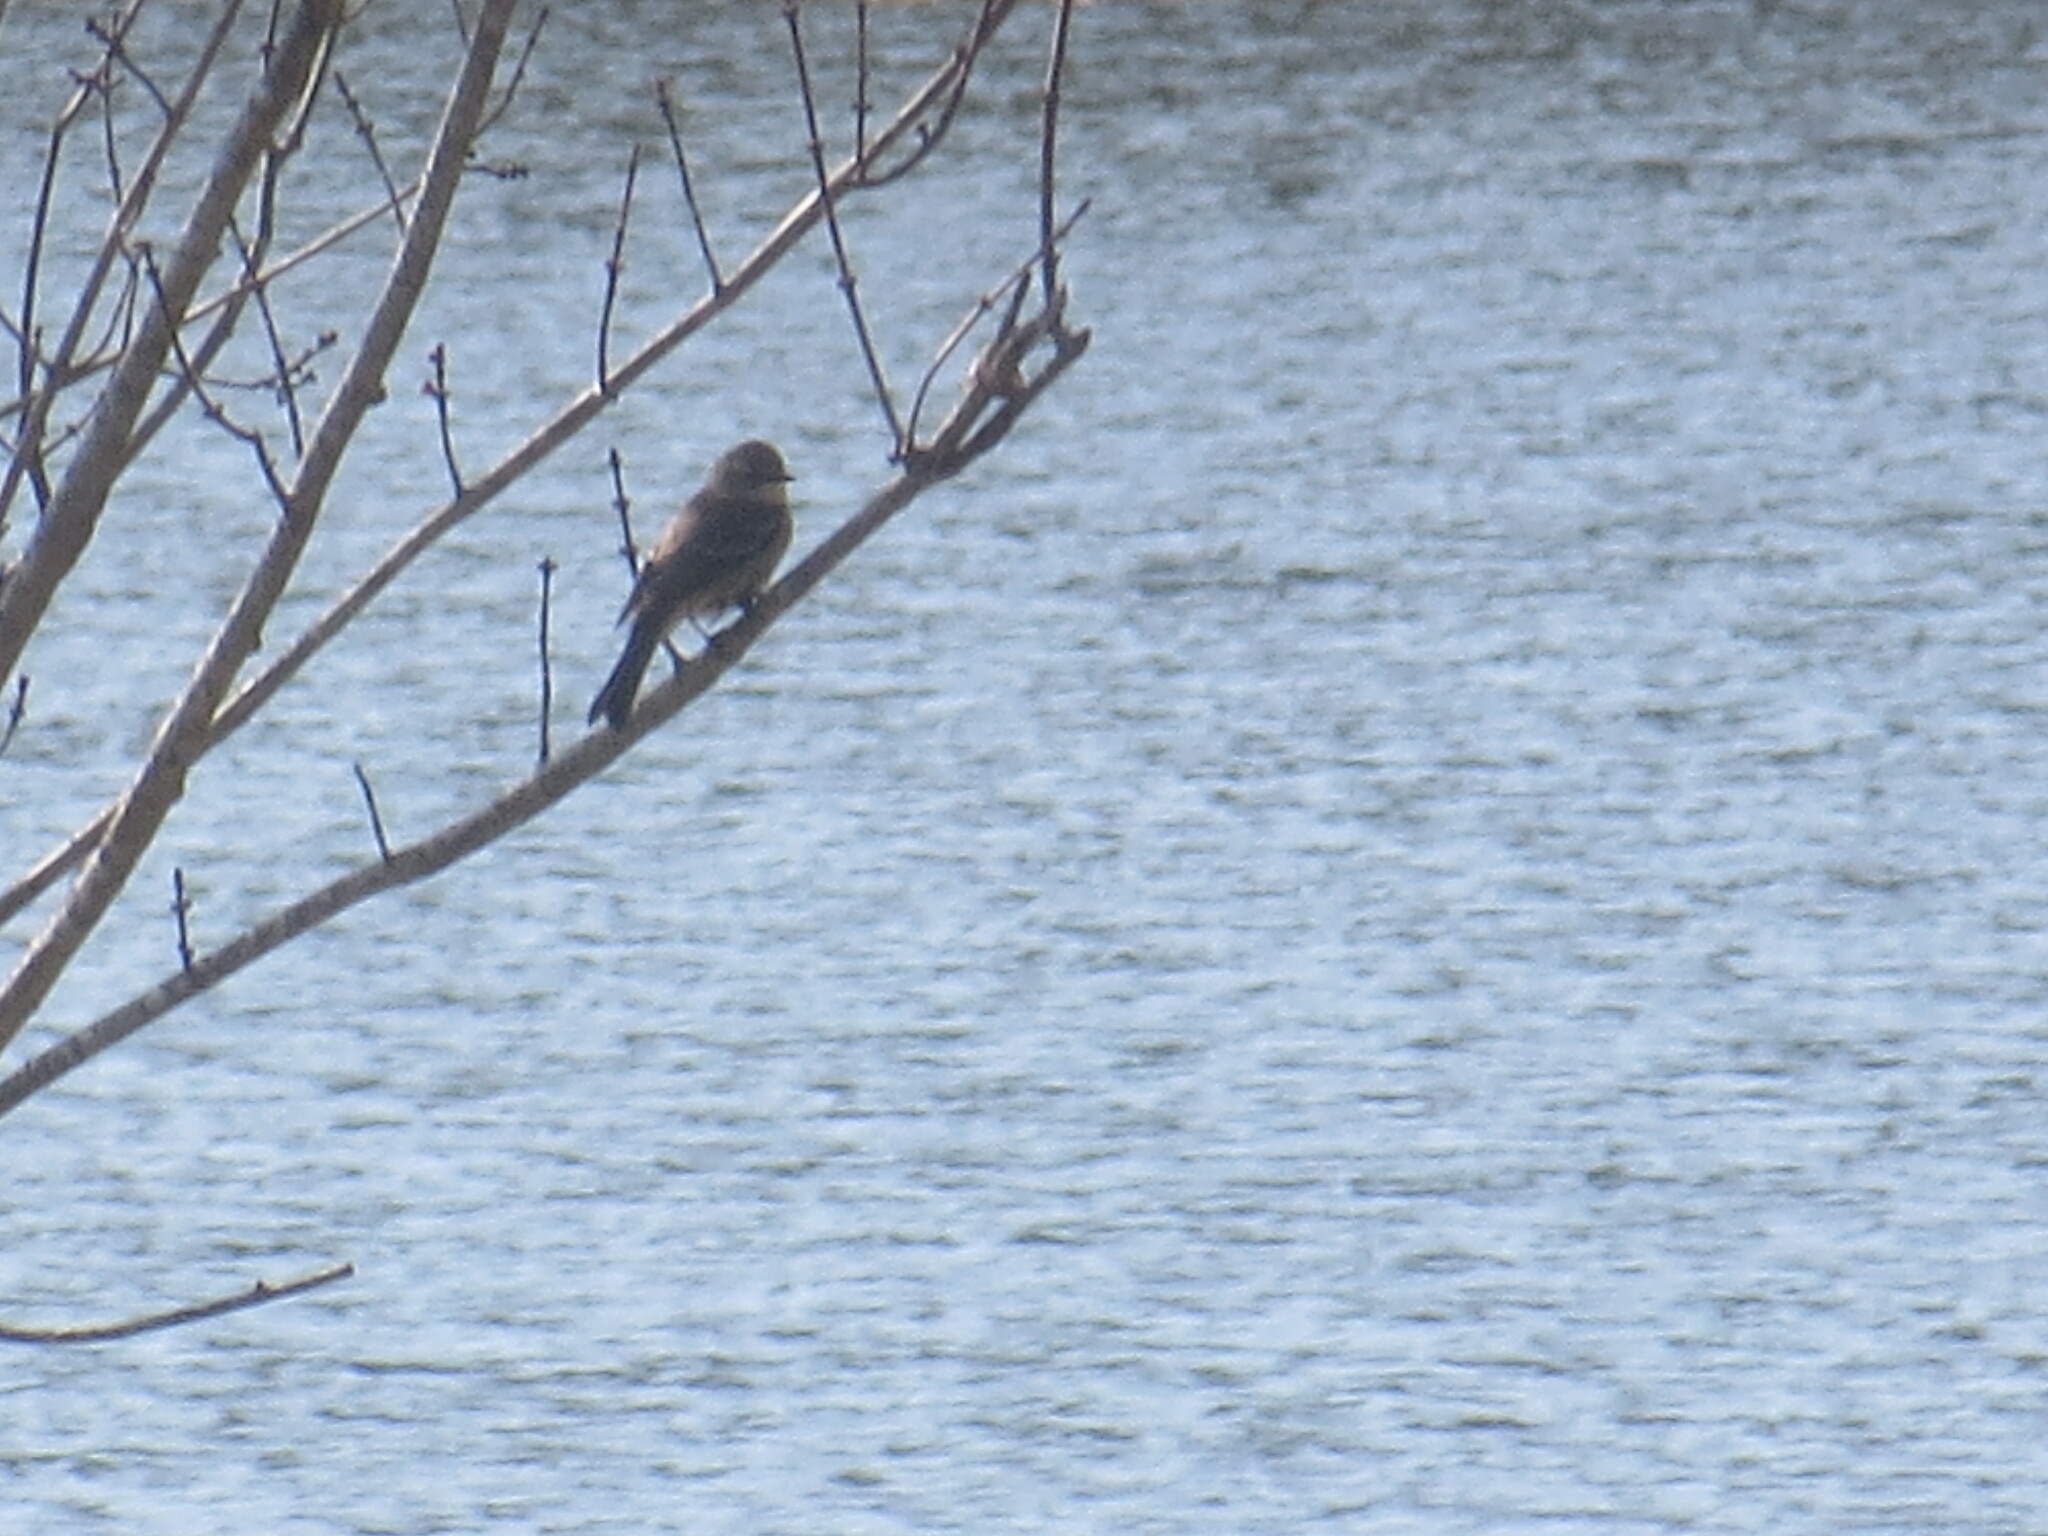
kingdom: Animalia
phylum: Chordata
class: Aves
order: Passeriformes
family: Parulidae
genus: Setophaga
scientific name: Setophaga coronata
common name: Myrtle warbler
